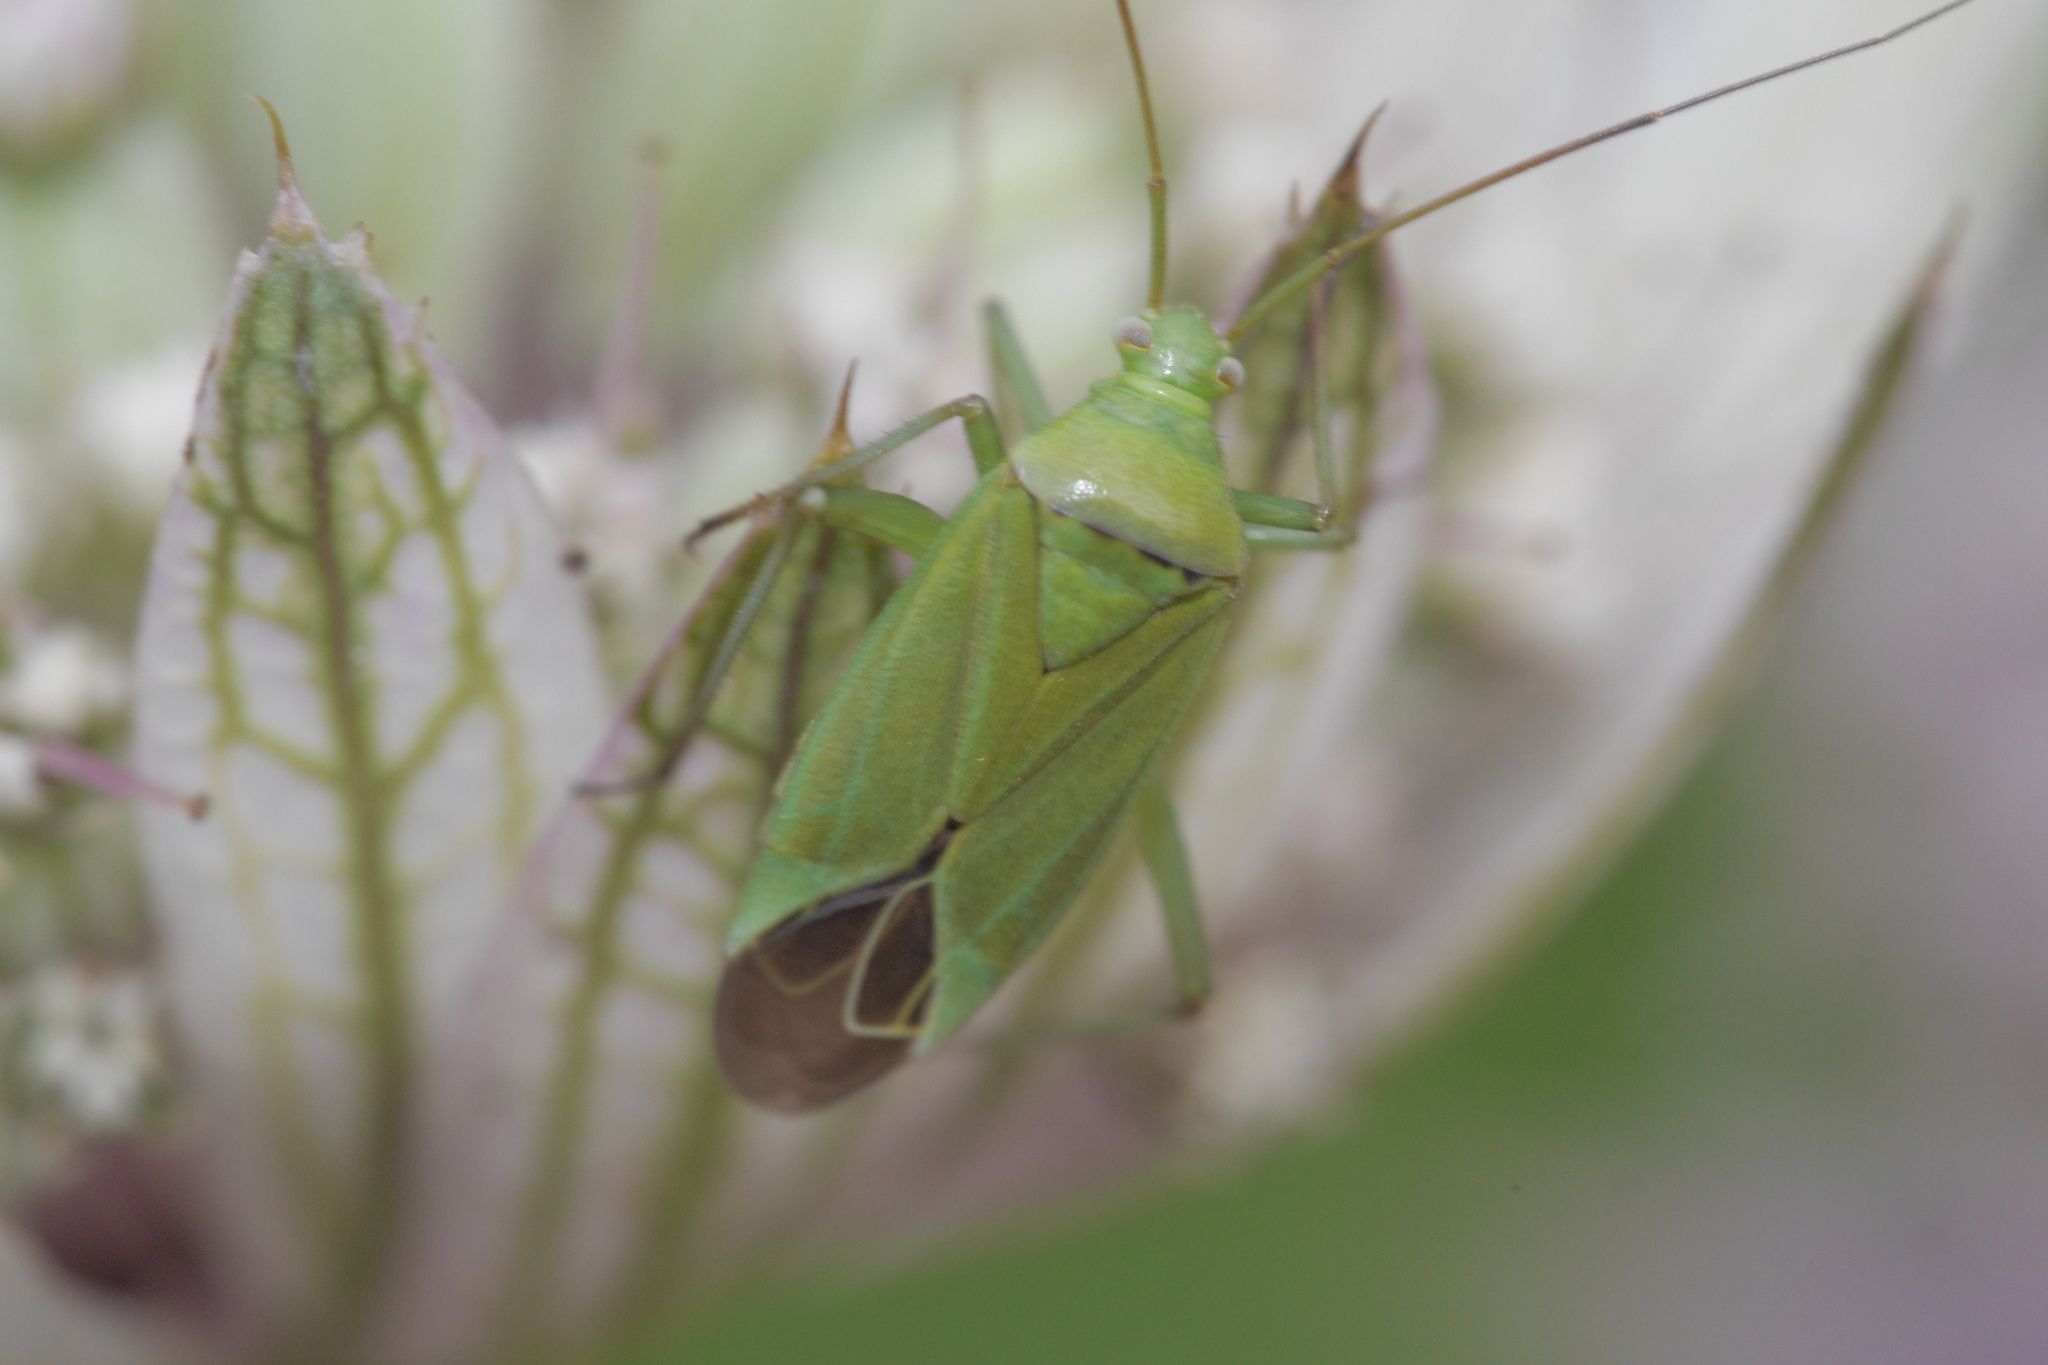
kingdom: Animalia
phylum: Arthropoda
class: Insecta
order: Hemiptera
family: Miridae
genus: Closterotomus
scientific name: Closterotomus norvegicus
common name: Plant bug
